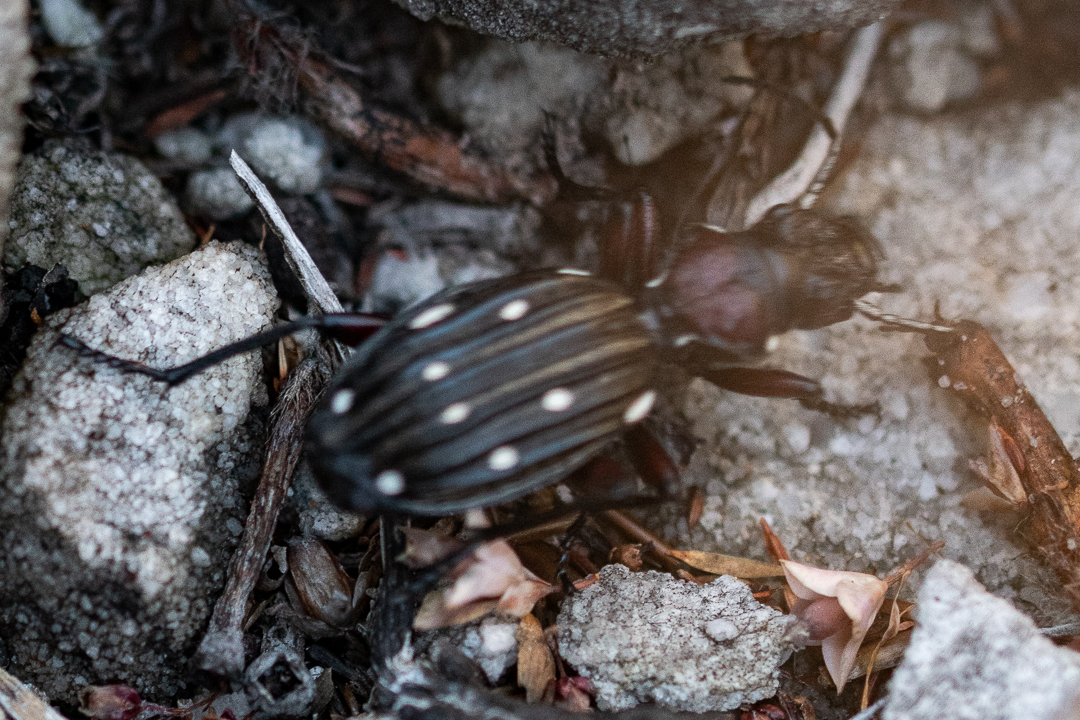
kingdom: Animalia
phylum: Arthropoda
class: Insecta
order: Coleoptera
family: Carabidae
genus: Anthia
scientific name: Anthia decemguttata
